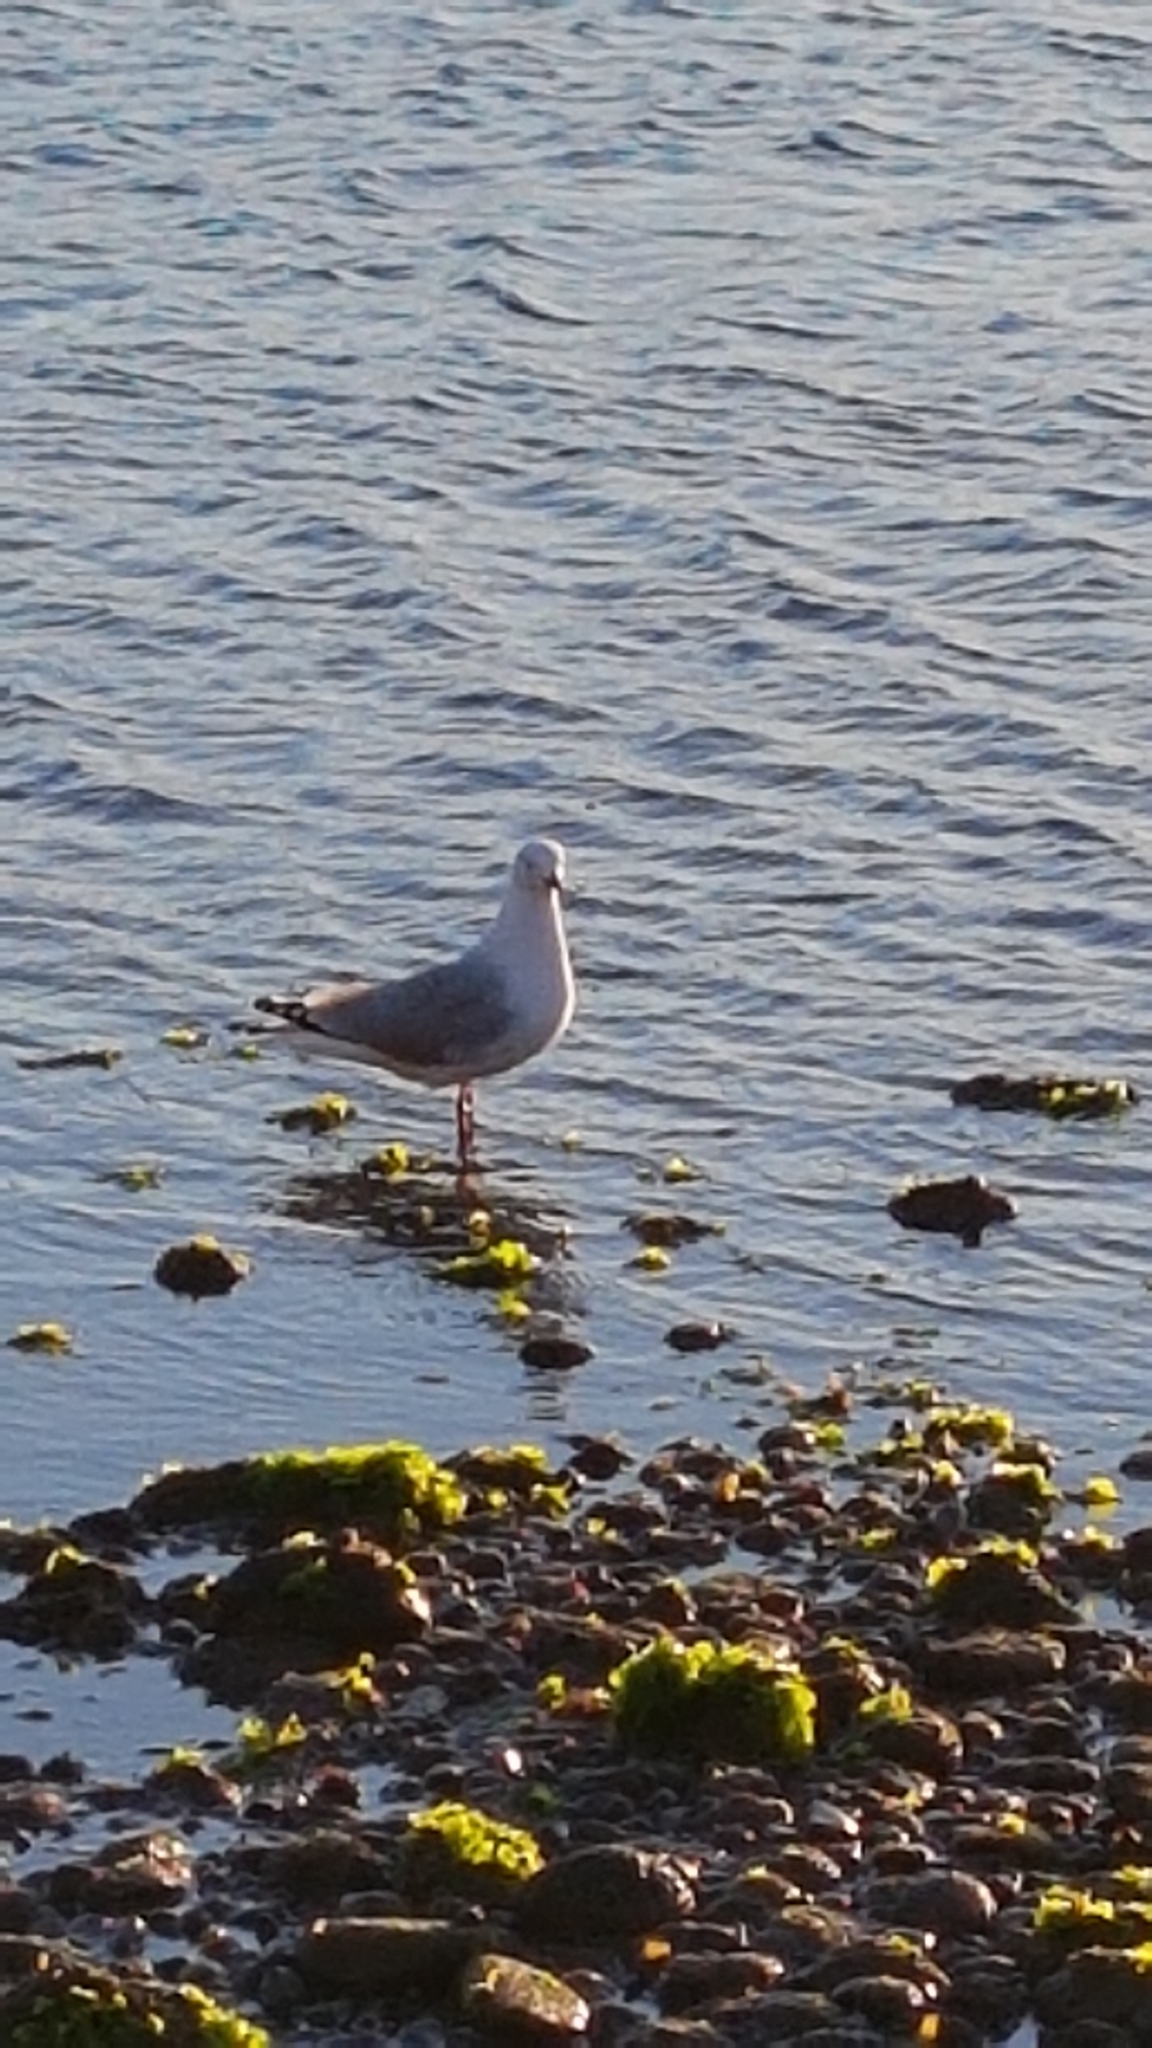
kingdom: Animalia
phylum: Chordata
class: Aves
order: Charadriiformes
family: Laridae
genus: Chroicocephalus
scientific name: Chroicocephalus novaehollandiae
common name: Silver gull
